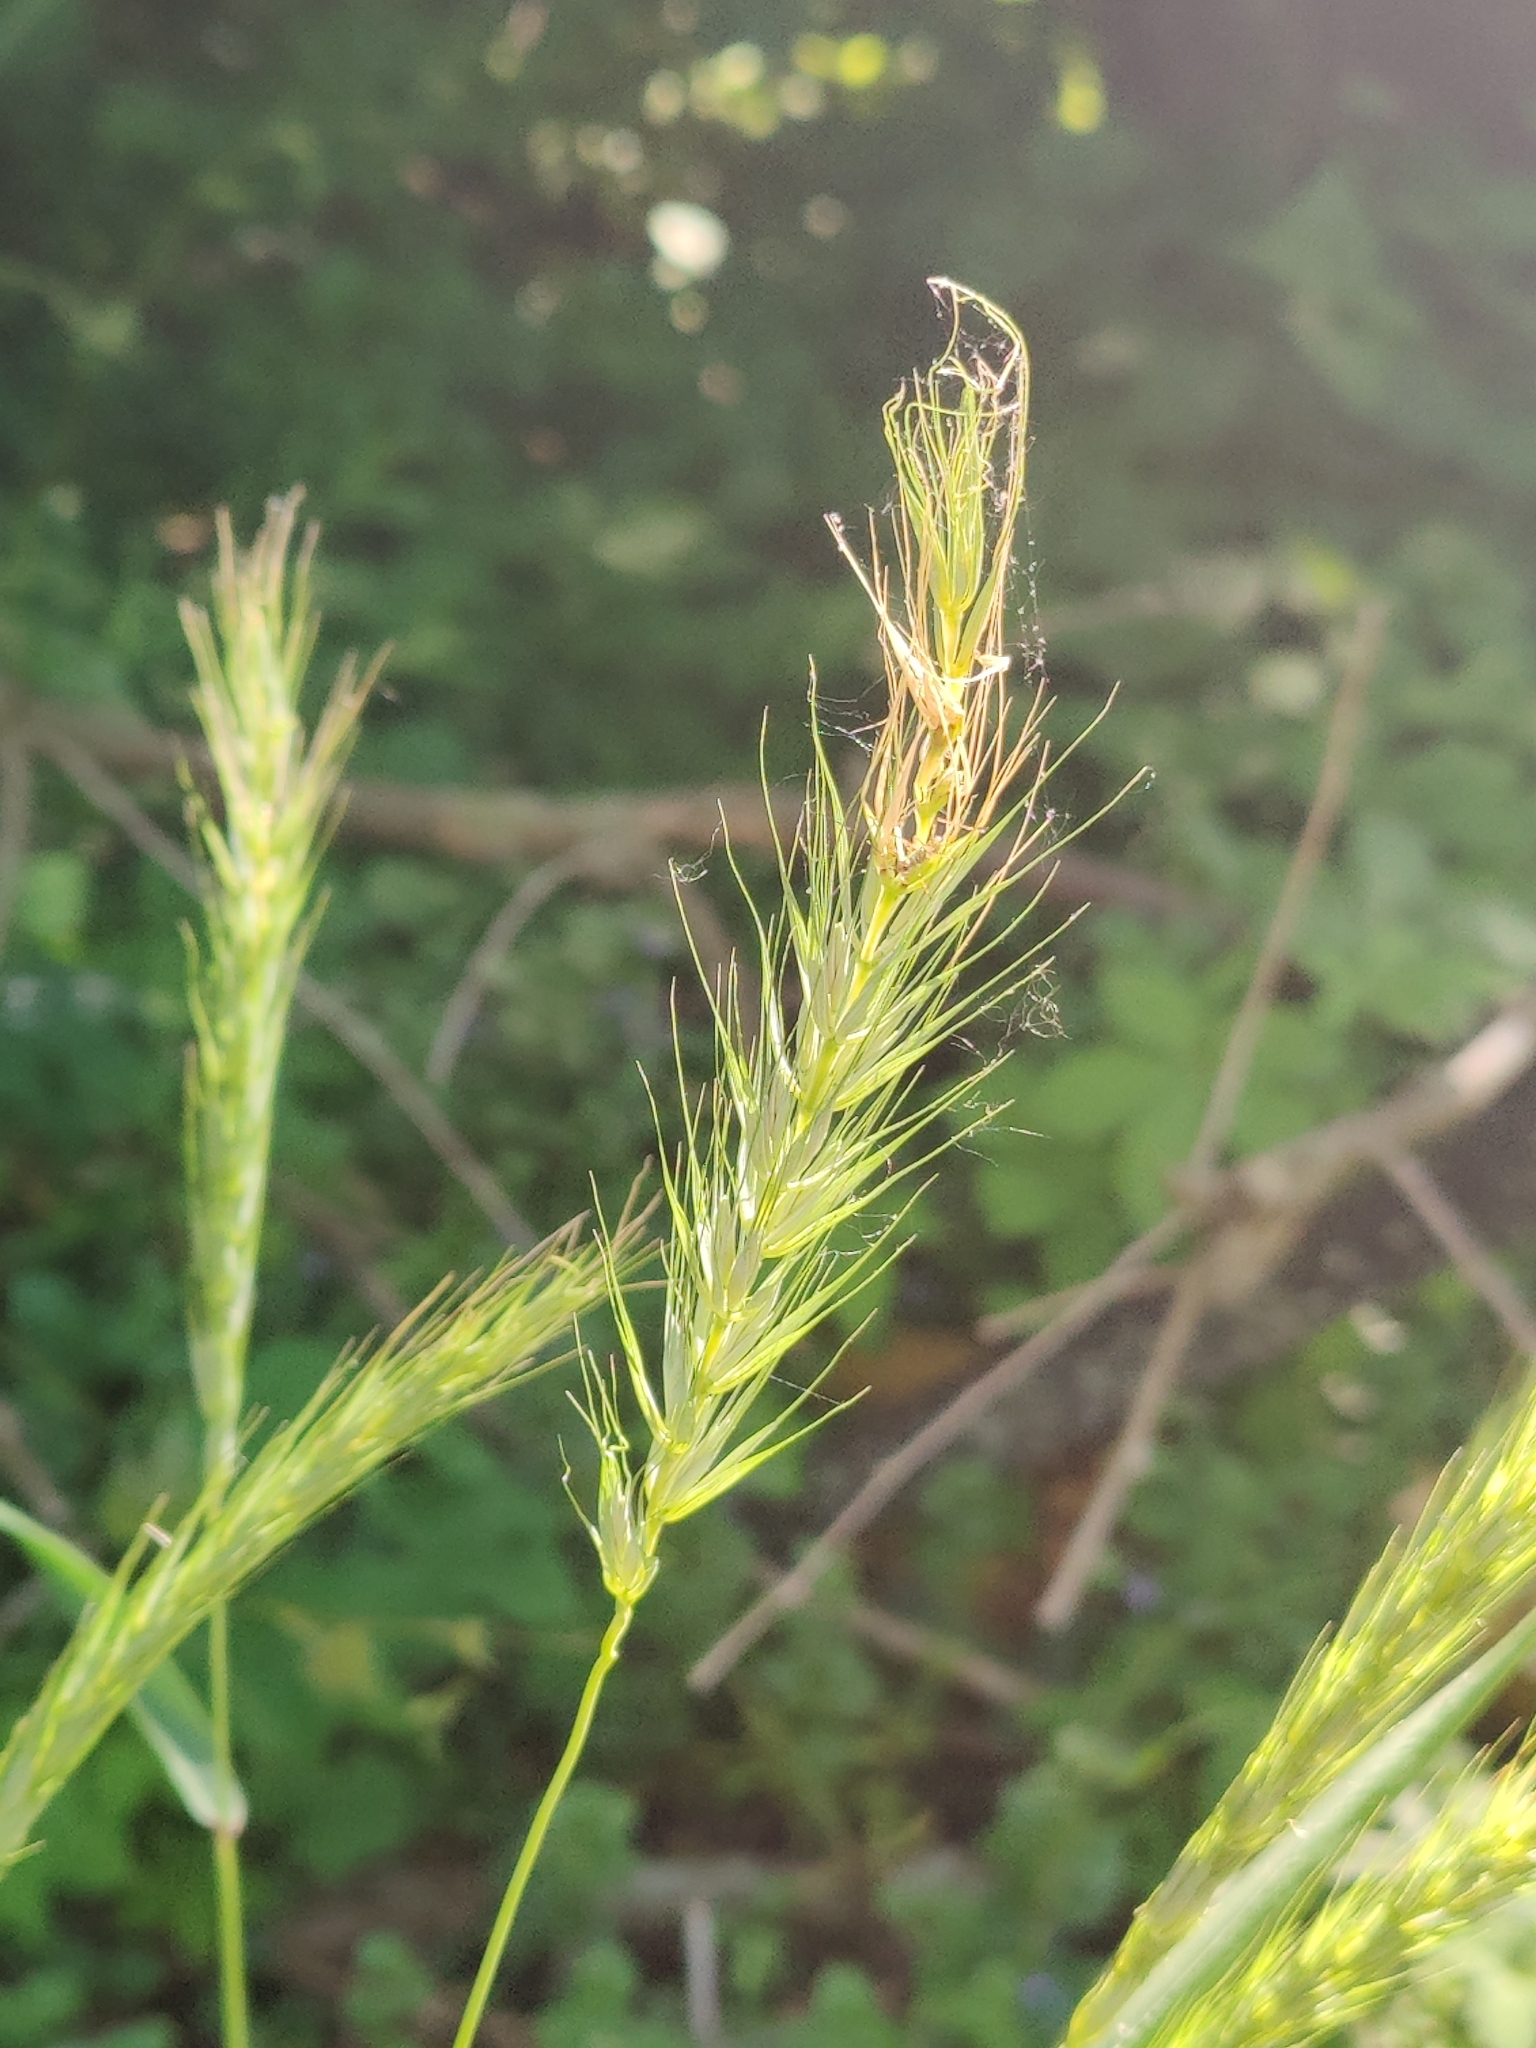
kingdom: Plantae
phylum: Tracheophyta
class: Liliopsida
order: Poales
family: Poaceae
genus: Elymus
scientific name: Elymus virginicus
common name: Common eastern wildrye
